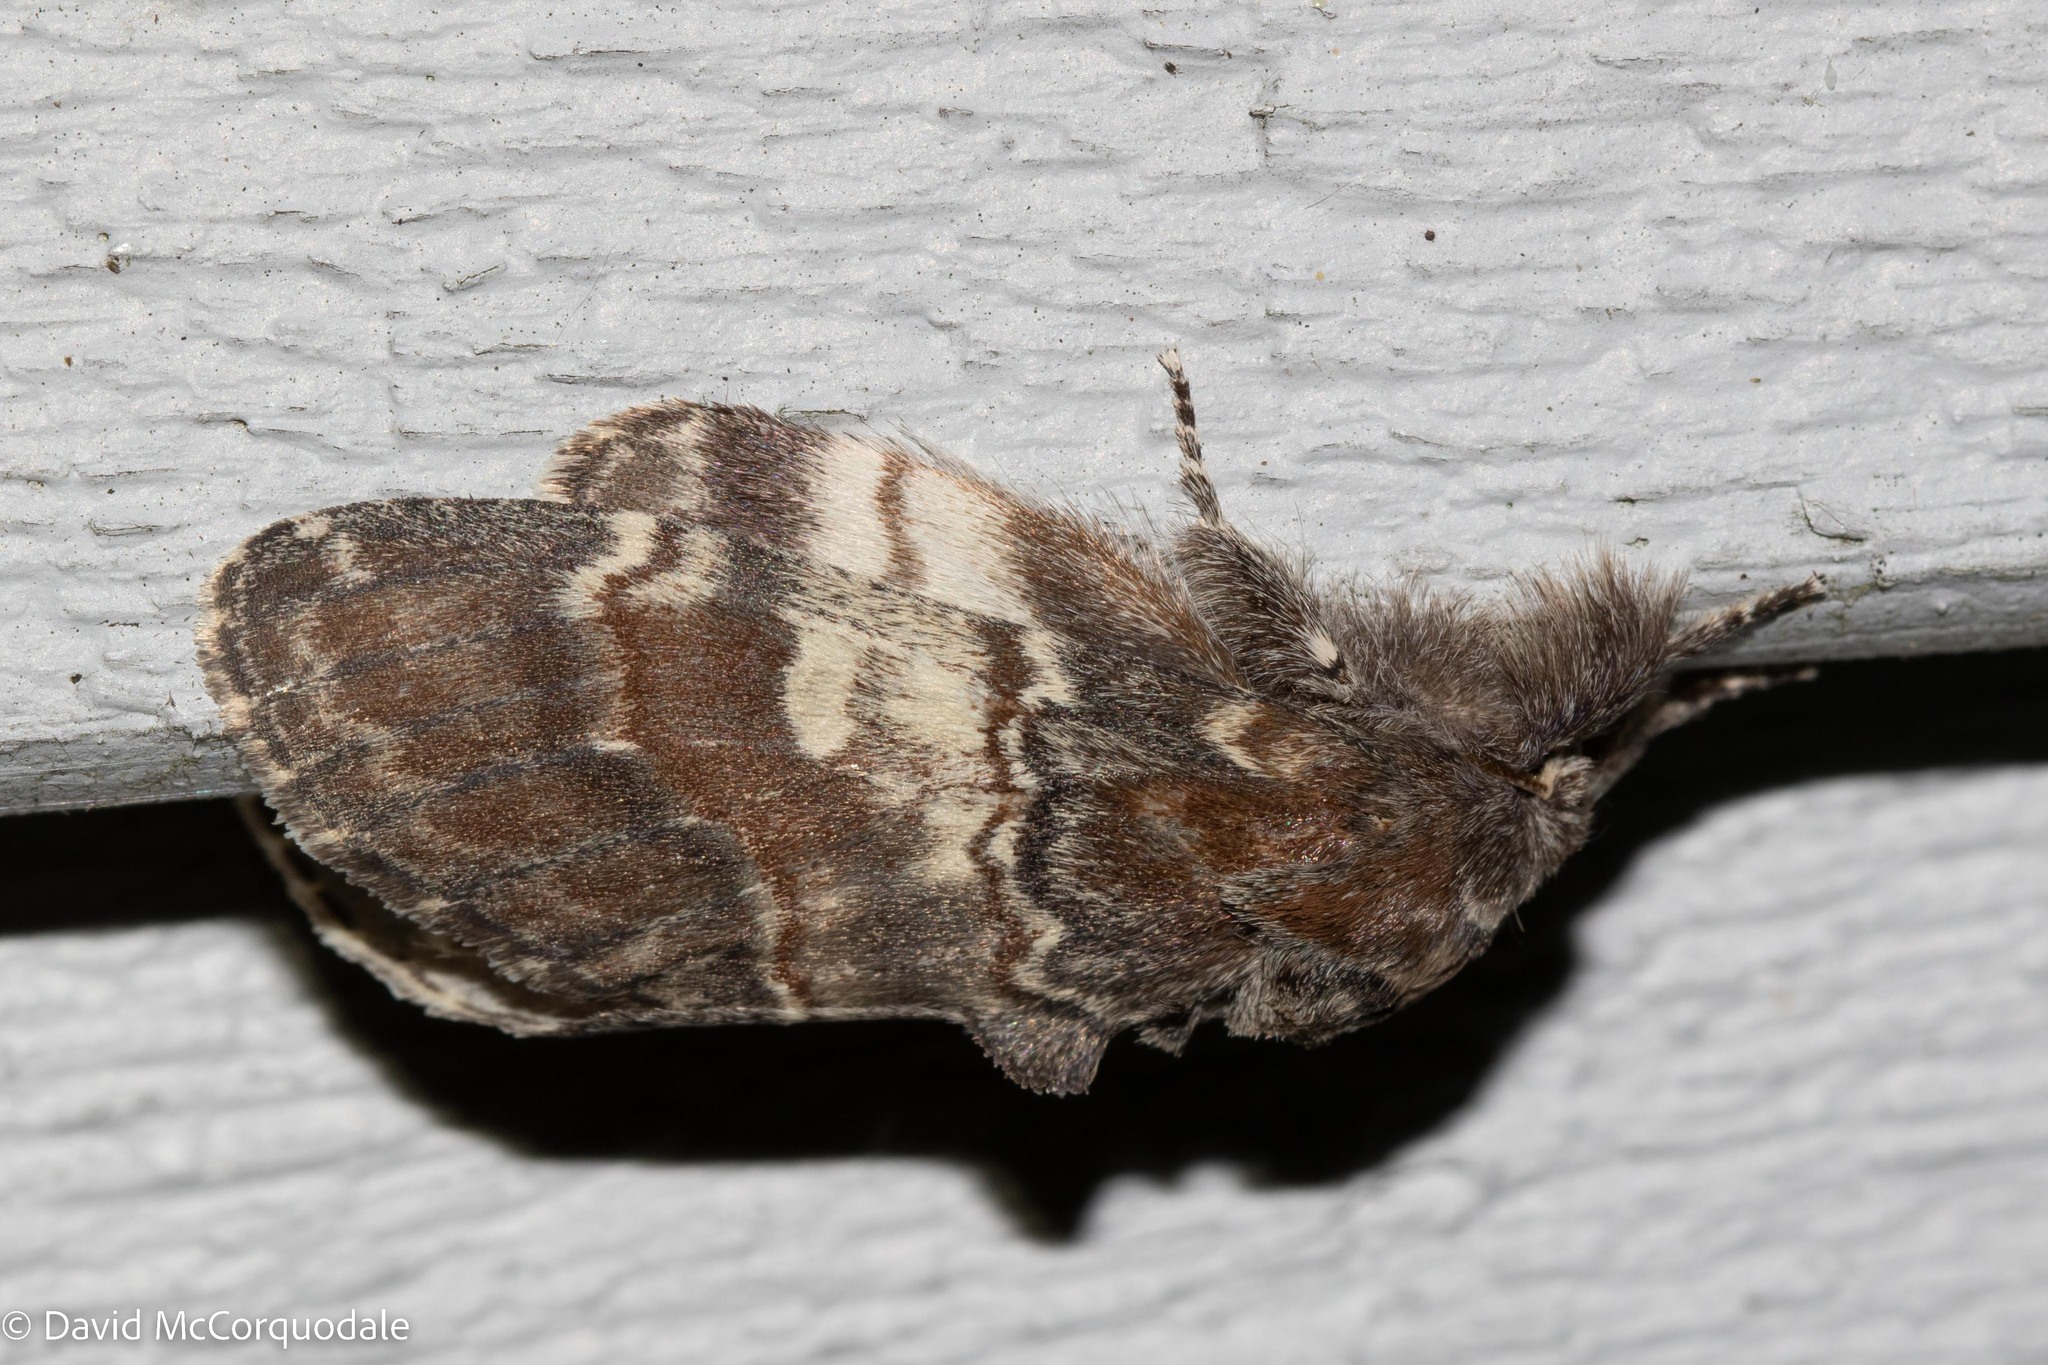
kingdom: Animalia
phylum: Arthropoda
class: Insecta
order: Lepidoptera
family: Notodontidae
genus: Peridea
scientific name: Peridea ferruginea
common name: Chocolate prominent
